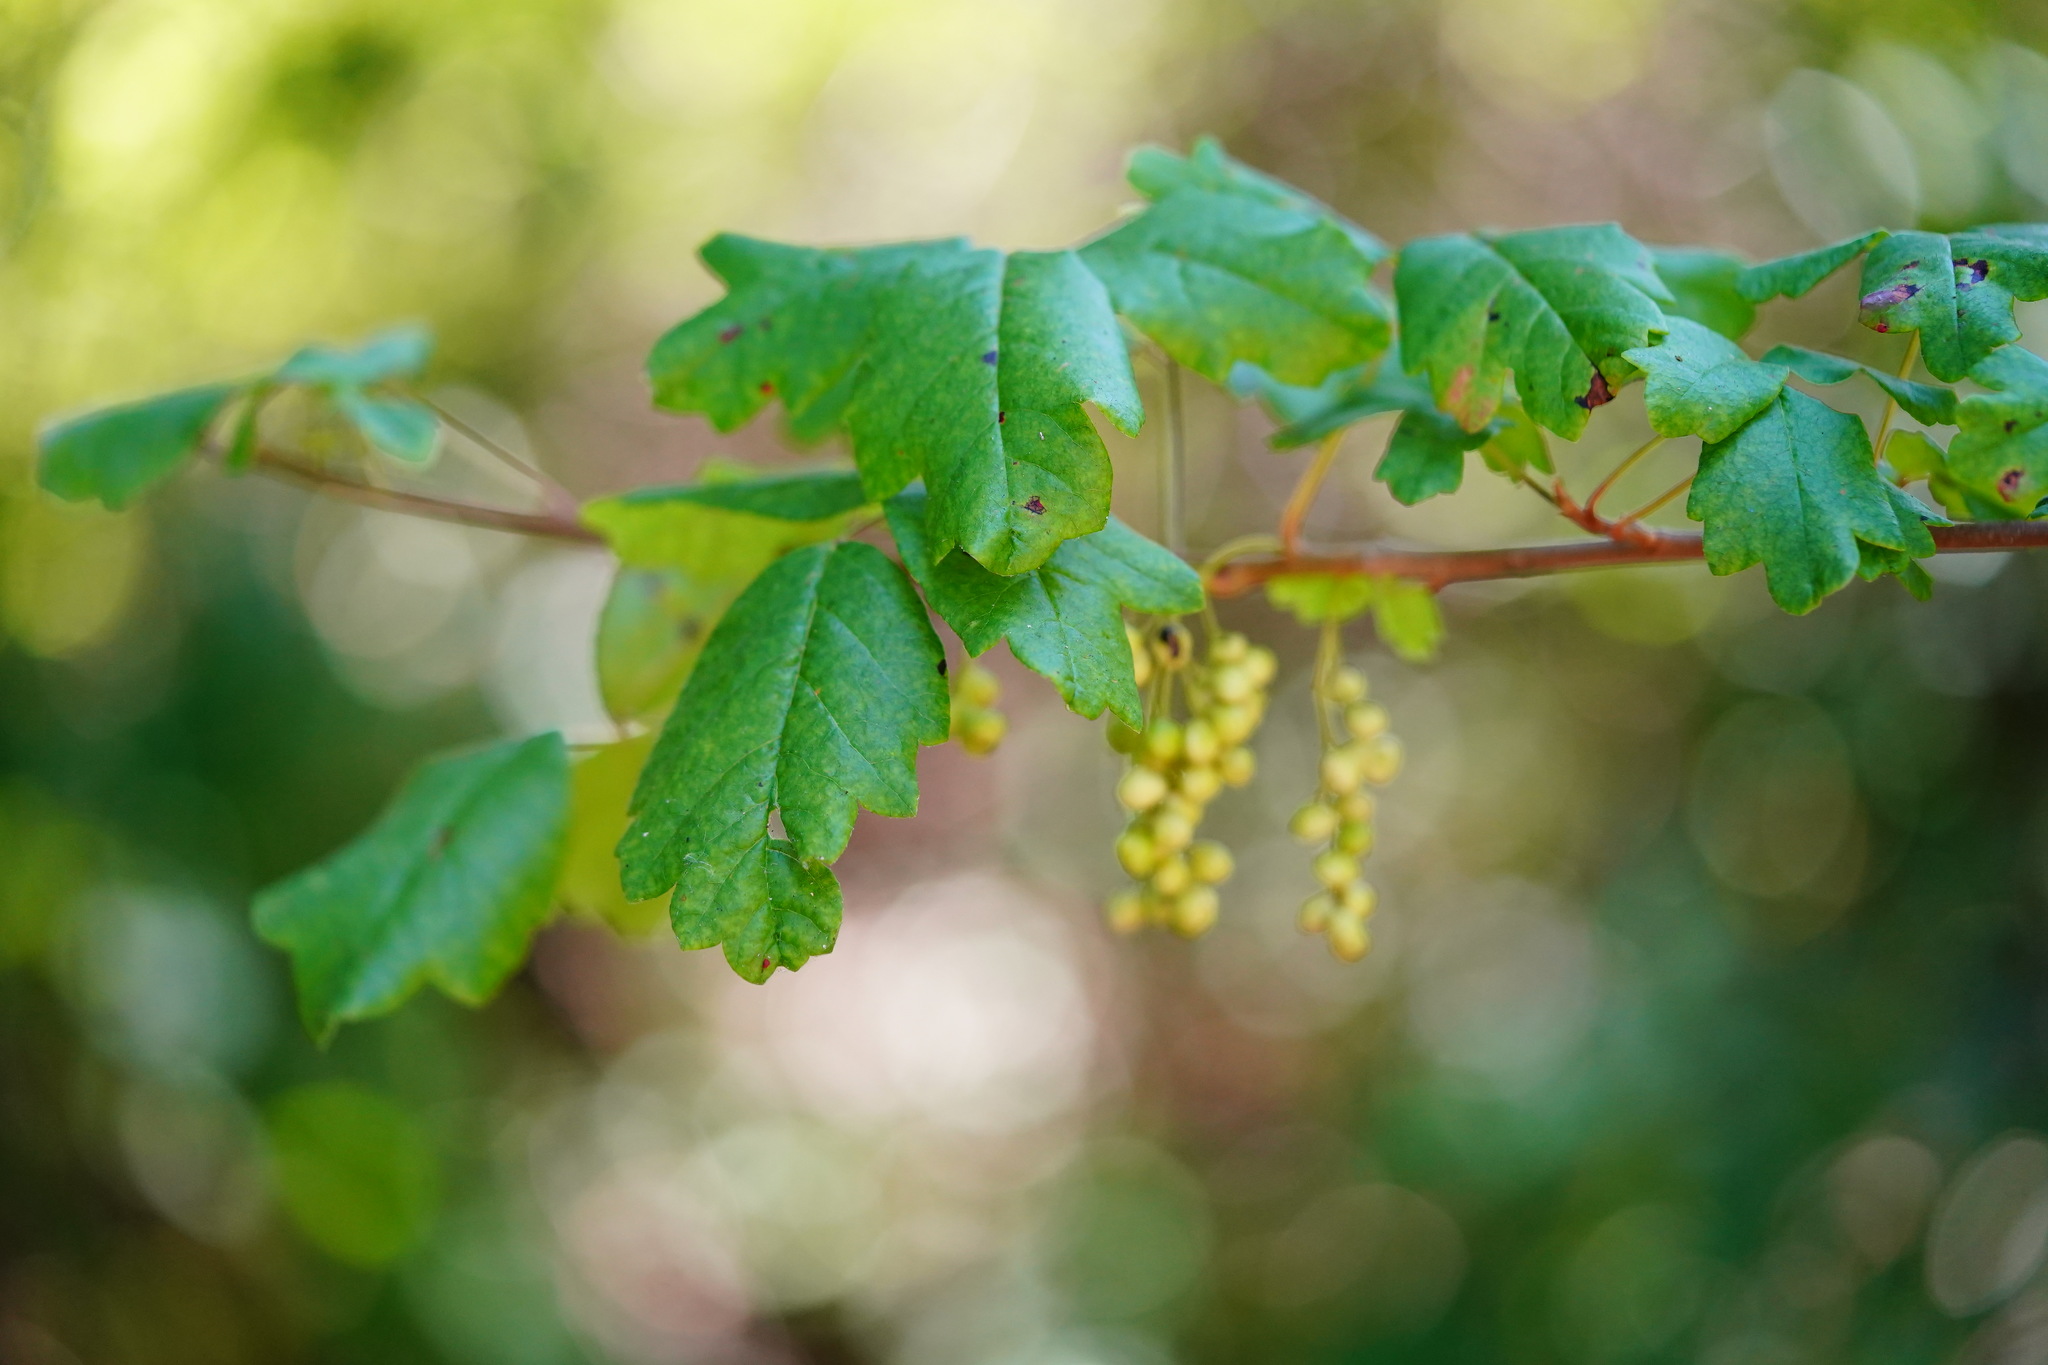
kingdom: Plantae
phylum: Tracheophyta
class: Magnoliopsida
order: Sapindales
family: Anacardiaceae
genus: Toxicodendron
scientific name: Toxicodendron diversilobum
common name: Pacific poison-oak
